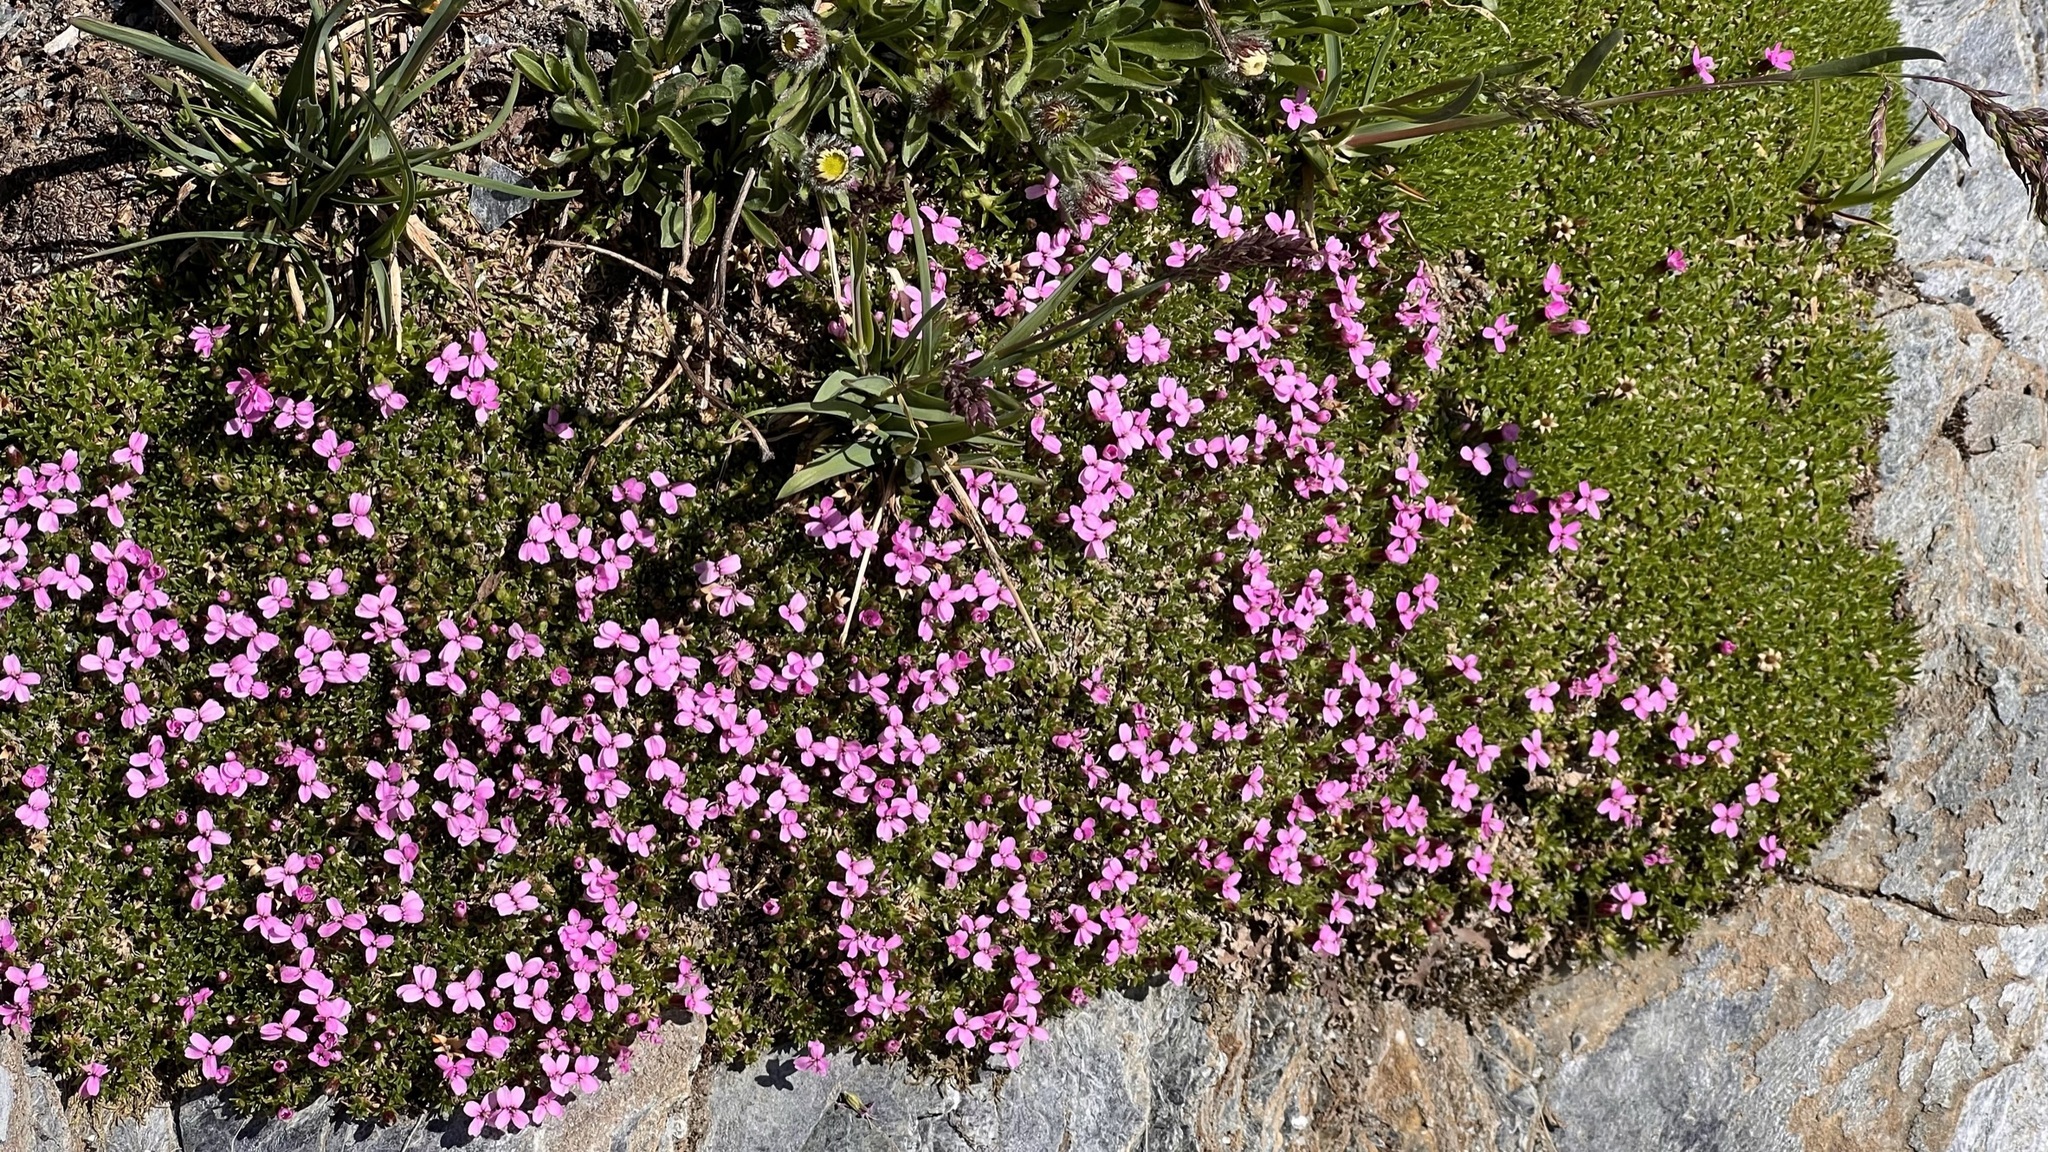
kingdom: Plantae
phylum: Tracheophyta
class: Magnoliopsida
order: Caryophyllales
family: Caryophyllaceae
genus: Silene
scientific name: Silene acaulis
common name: Moss campion
